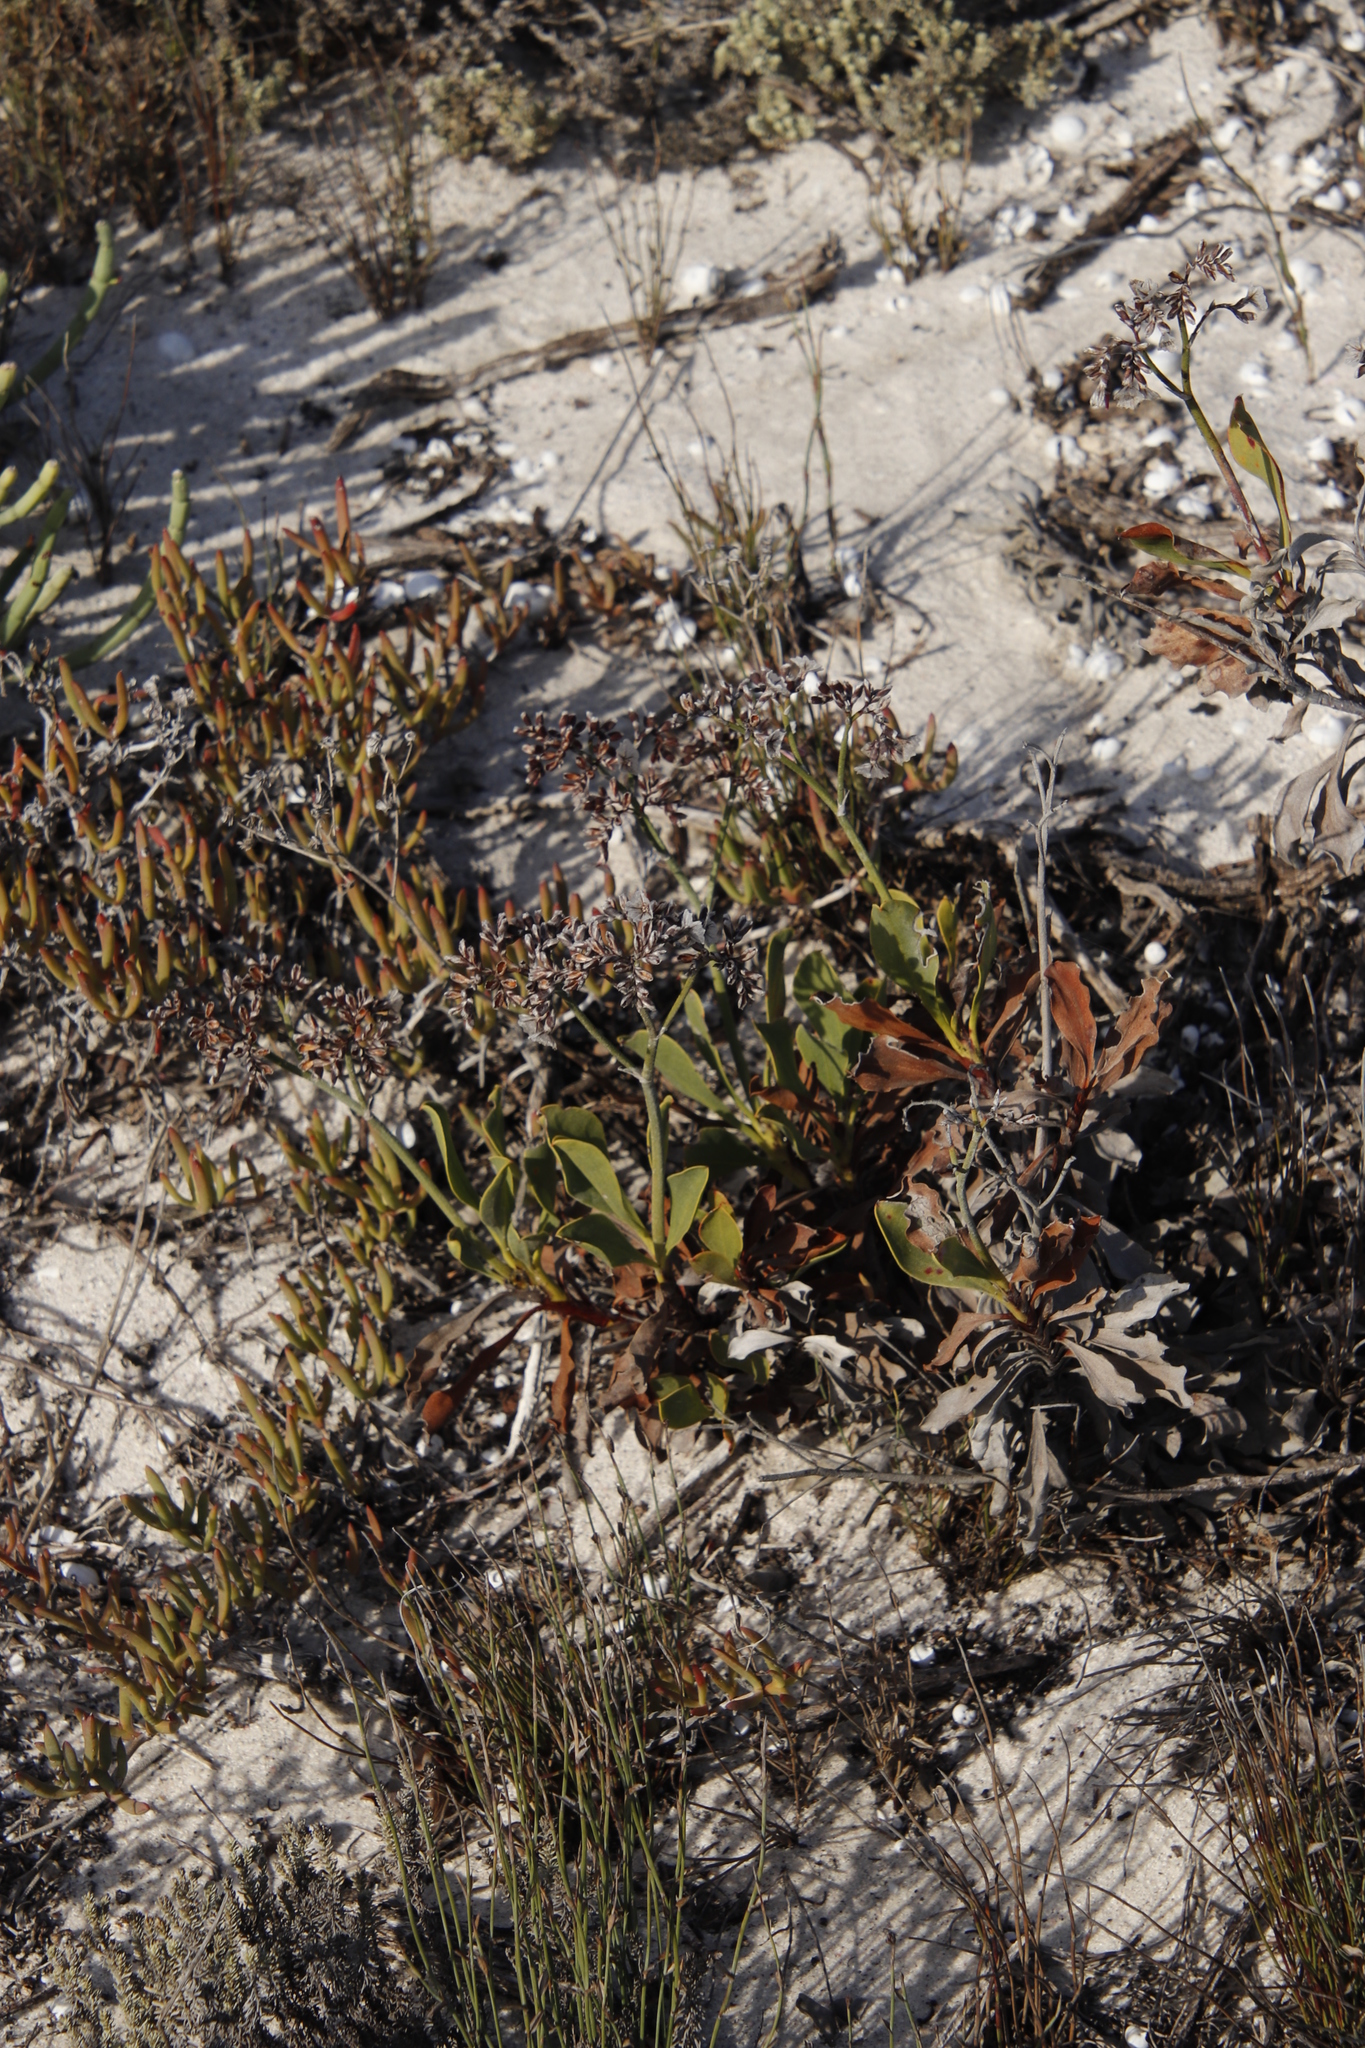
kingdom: Plantae
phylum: Tracheophyta
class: Magnoliopsida
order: Caryophyllales
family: Plumbaginaceae
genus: Limonium
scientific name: Limonium peregrinum
